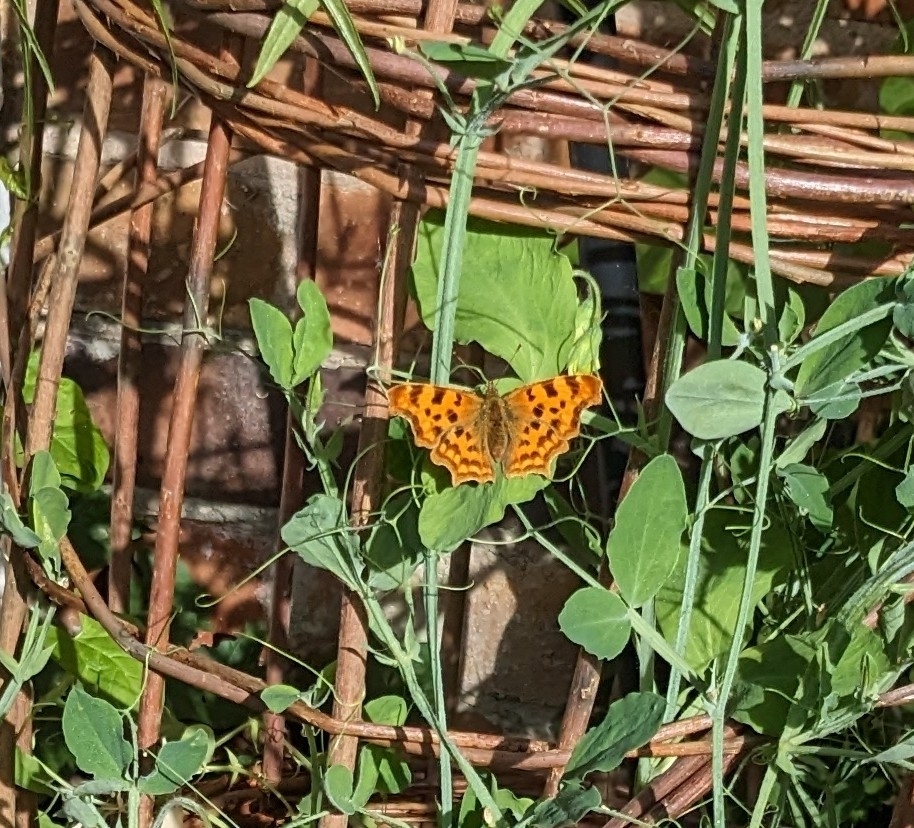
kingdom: Animalia
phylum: Arthropoda
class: Insecta
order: Lepidoptera
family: Nymphalidae
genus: Polygonia
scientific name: Polygonia c-album
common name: Comma
